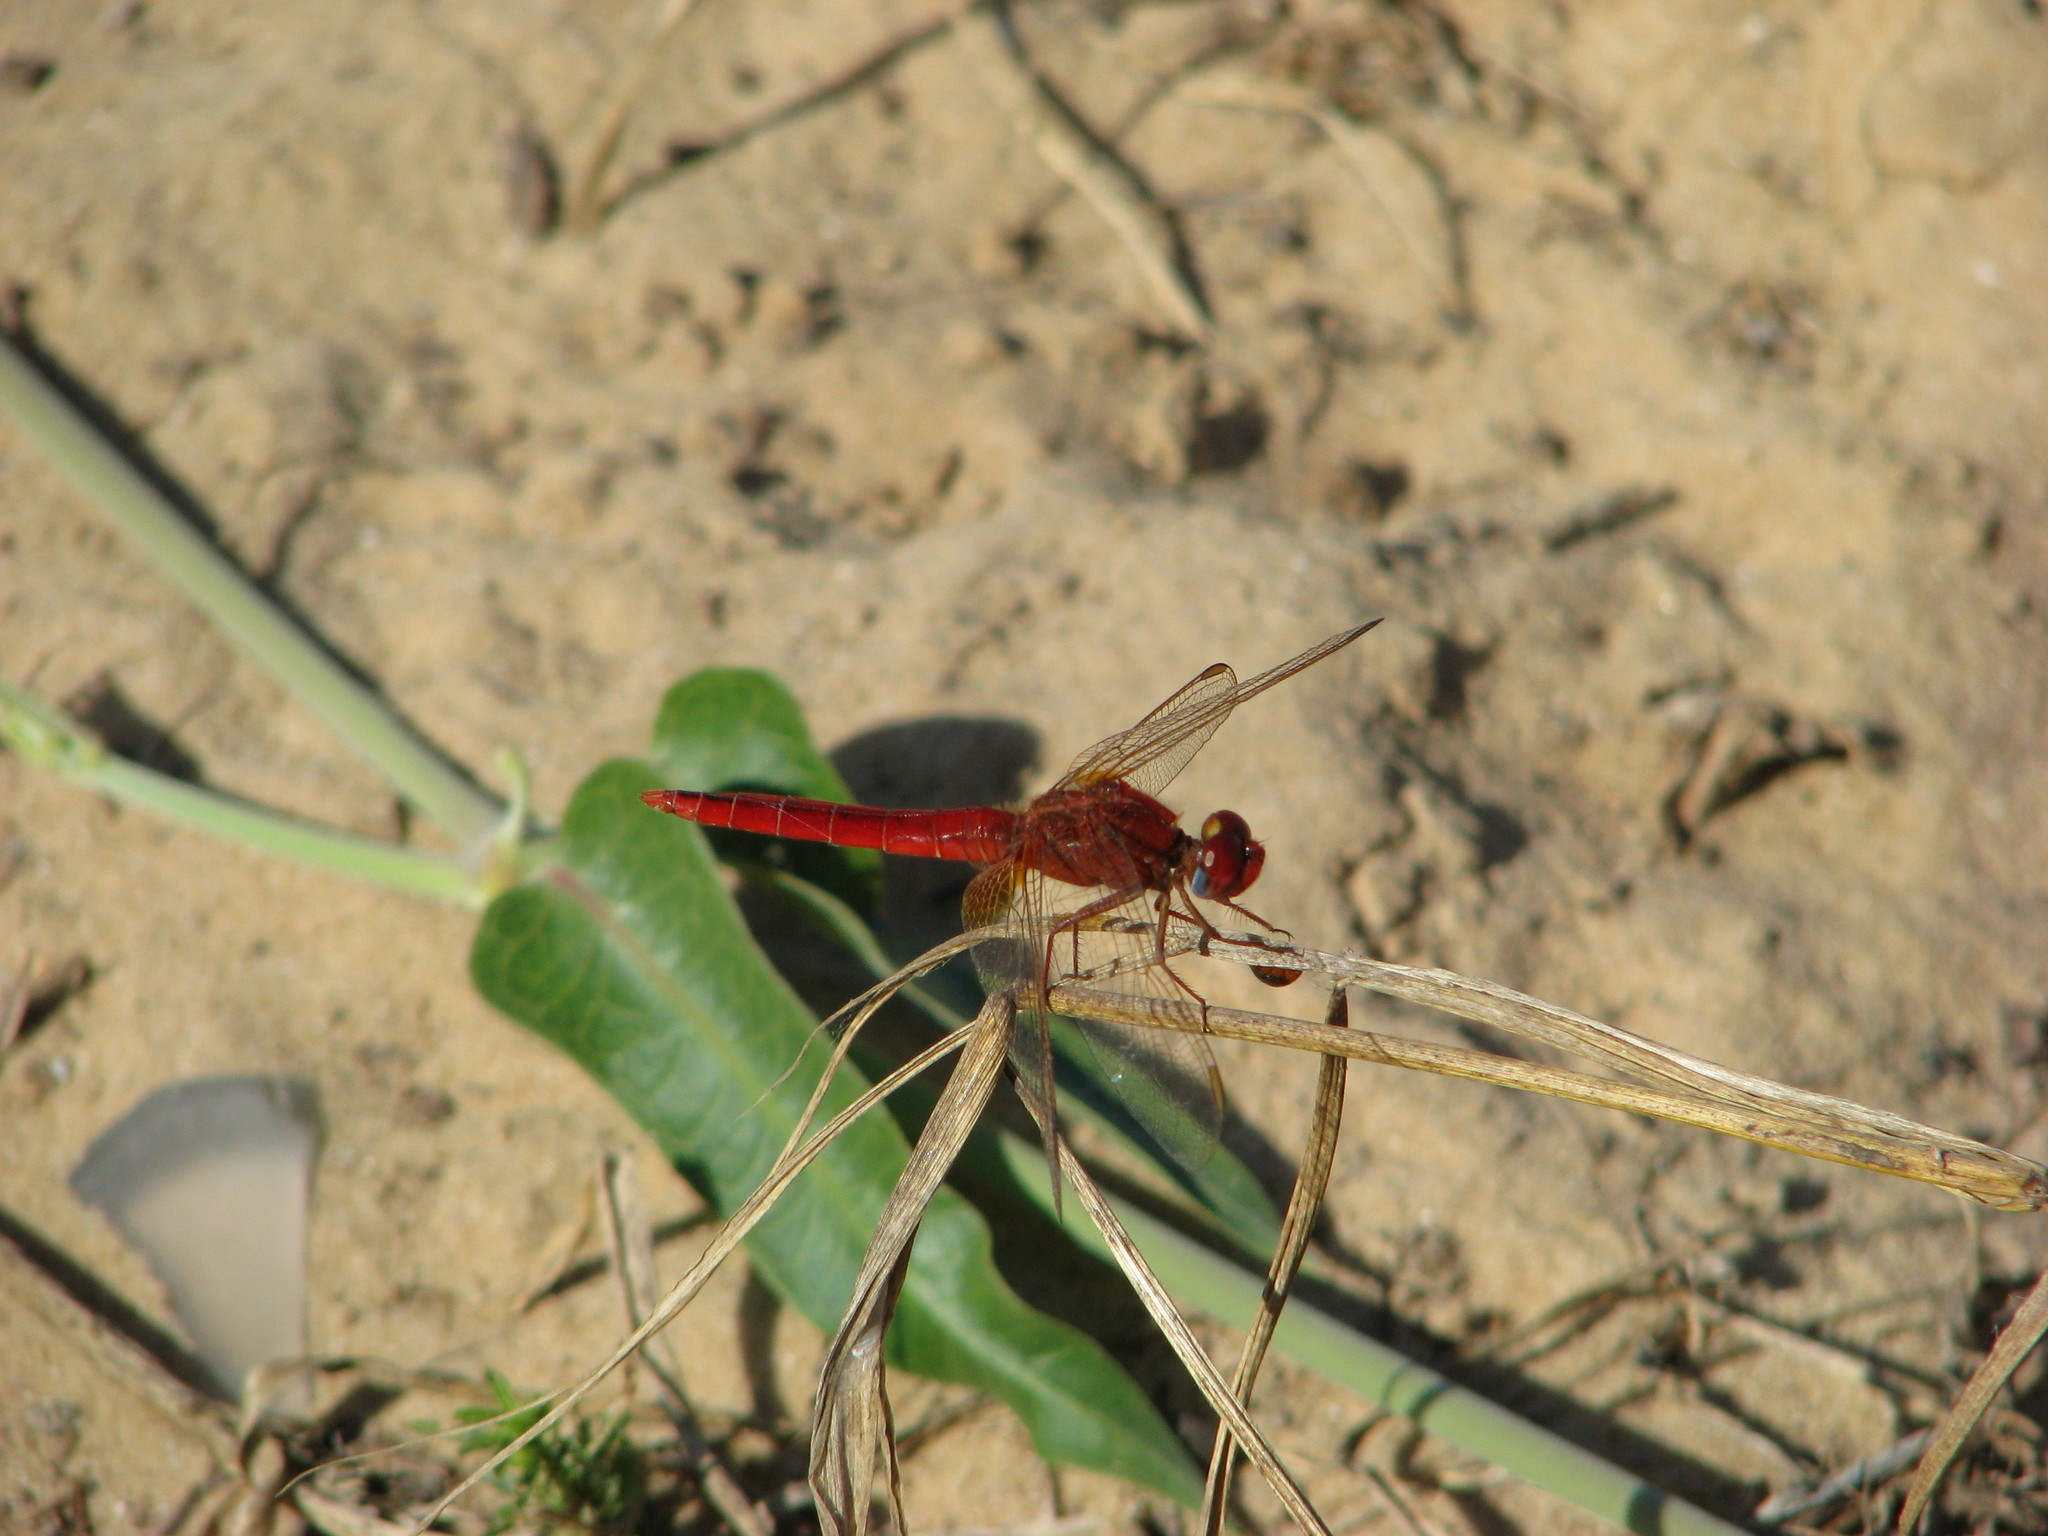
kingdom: Animalia
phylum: Arthropoda
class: Insecta
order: Odonata
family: Libellulidae
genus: Crocothemis
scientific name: Crocothemis erythraea
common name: Scarlet dragonfly
